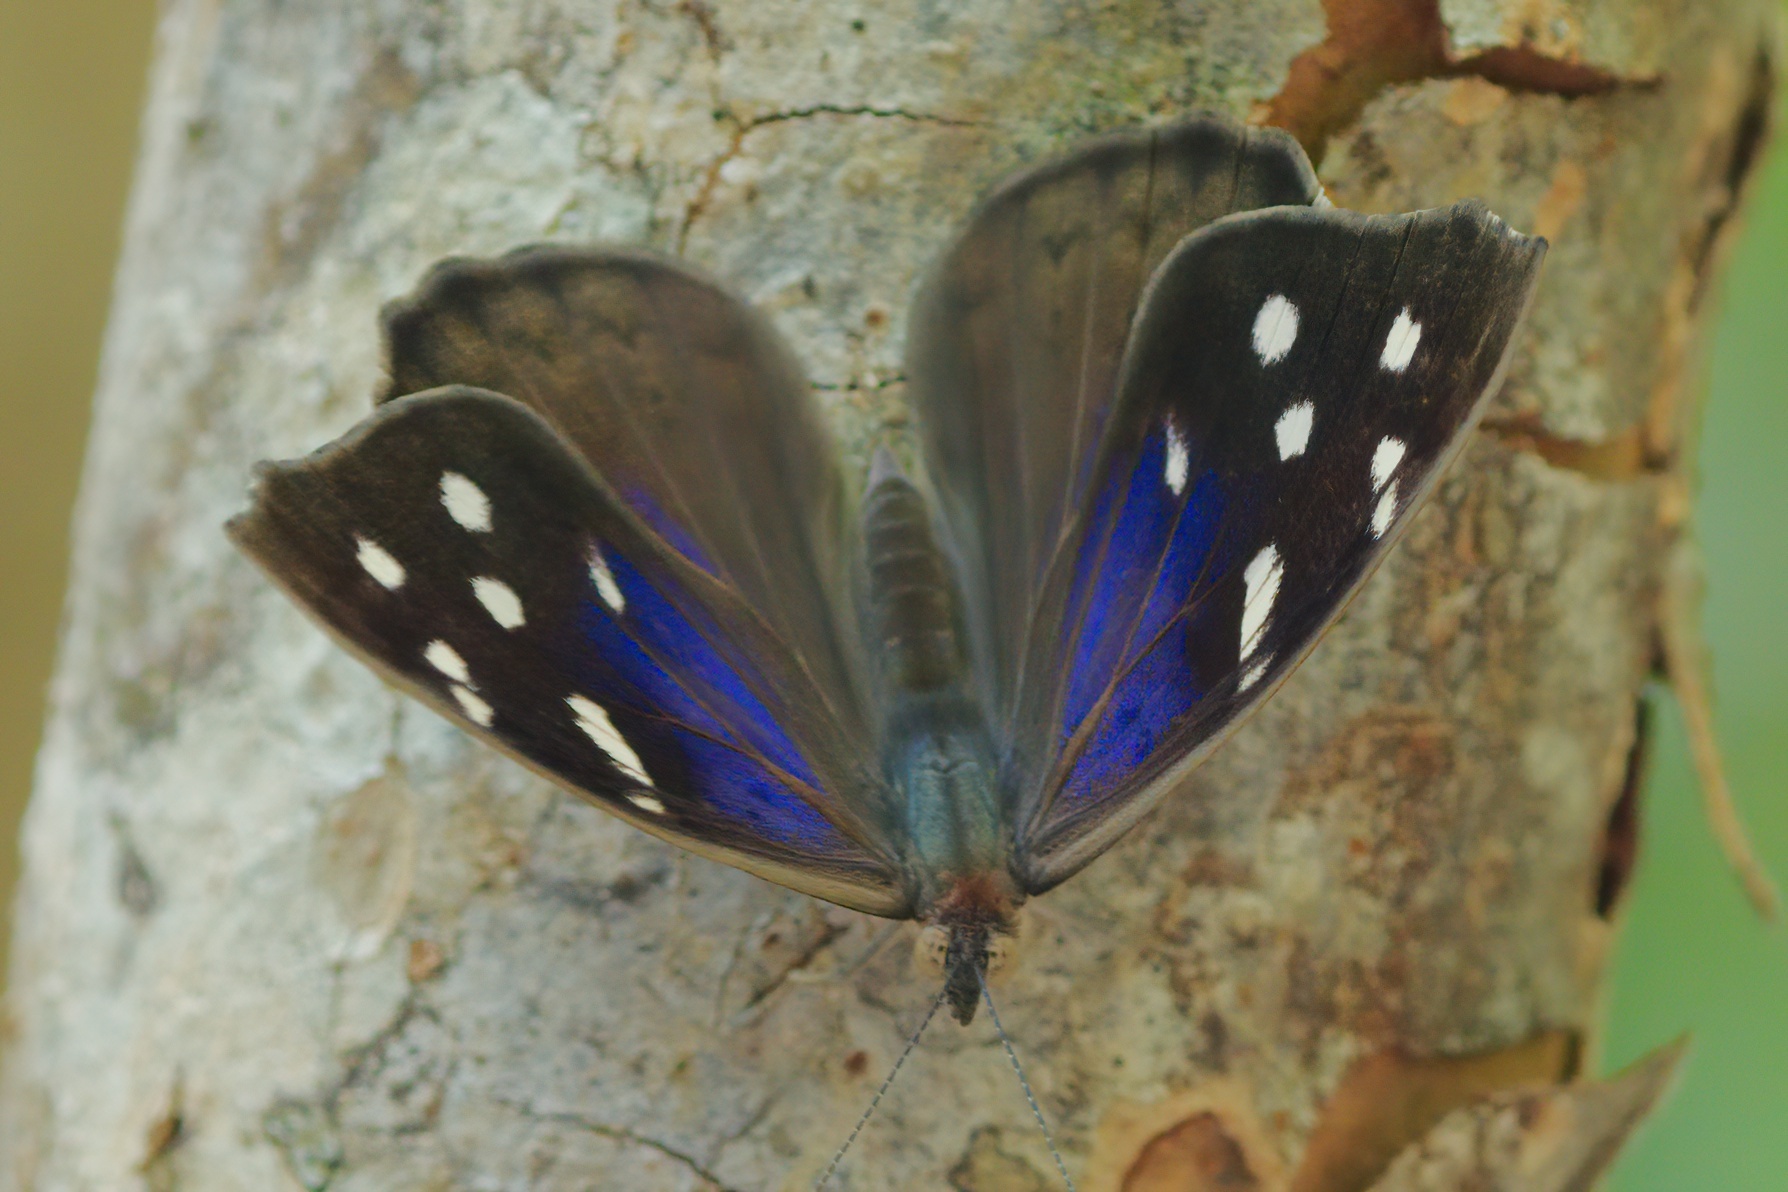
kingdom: Animalia
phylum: Arthropoda
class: Insecta
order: Lepidoptera
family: Nymphalidae
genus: Eunica
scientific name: Eunica tatila
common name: Florida purplewing
